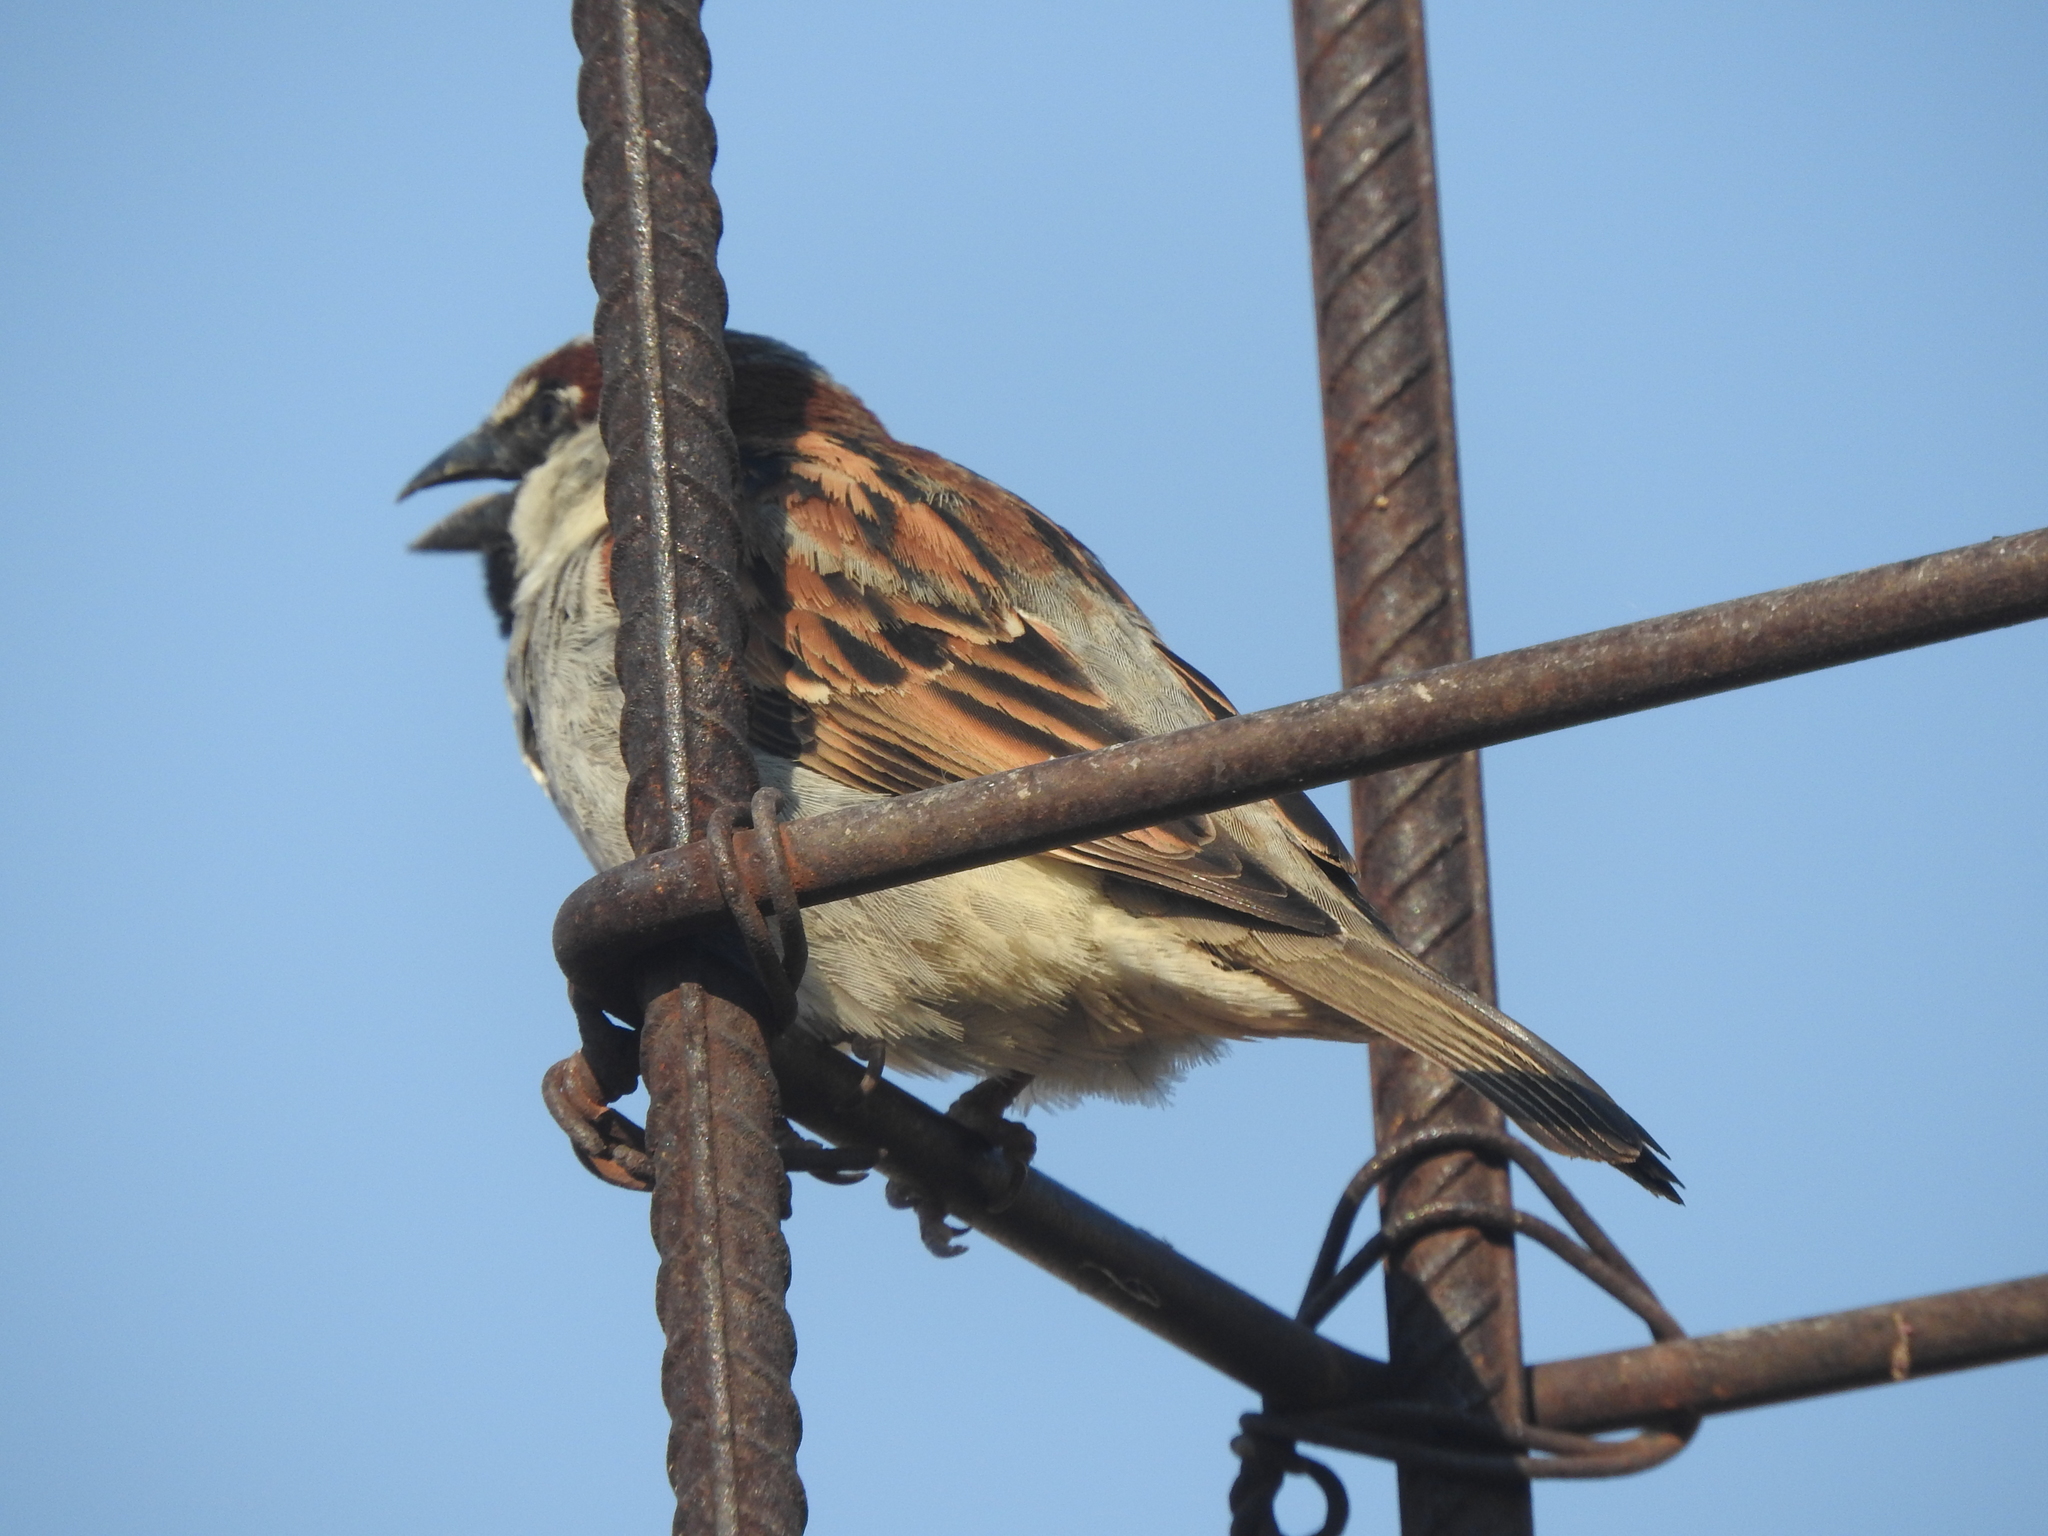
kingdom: Animalia
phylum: Chordata
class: Aves
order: Passeriformes
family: Passeridae
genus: Passer
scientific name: Passer domesticus
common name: House sparrow
